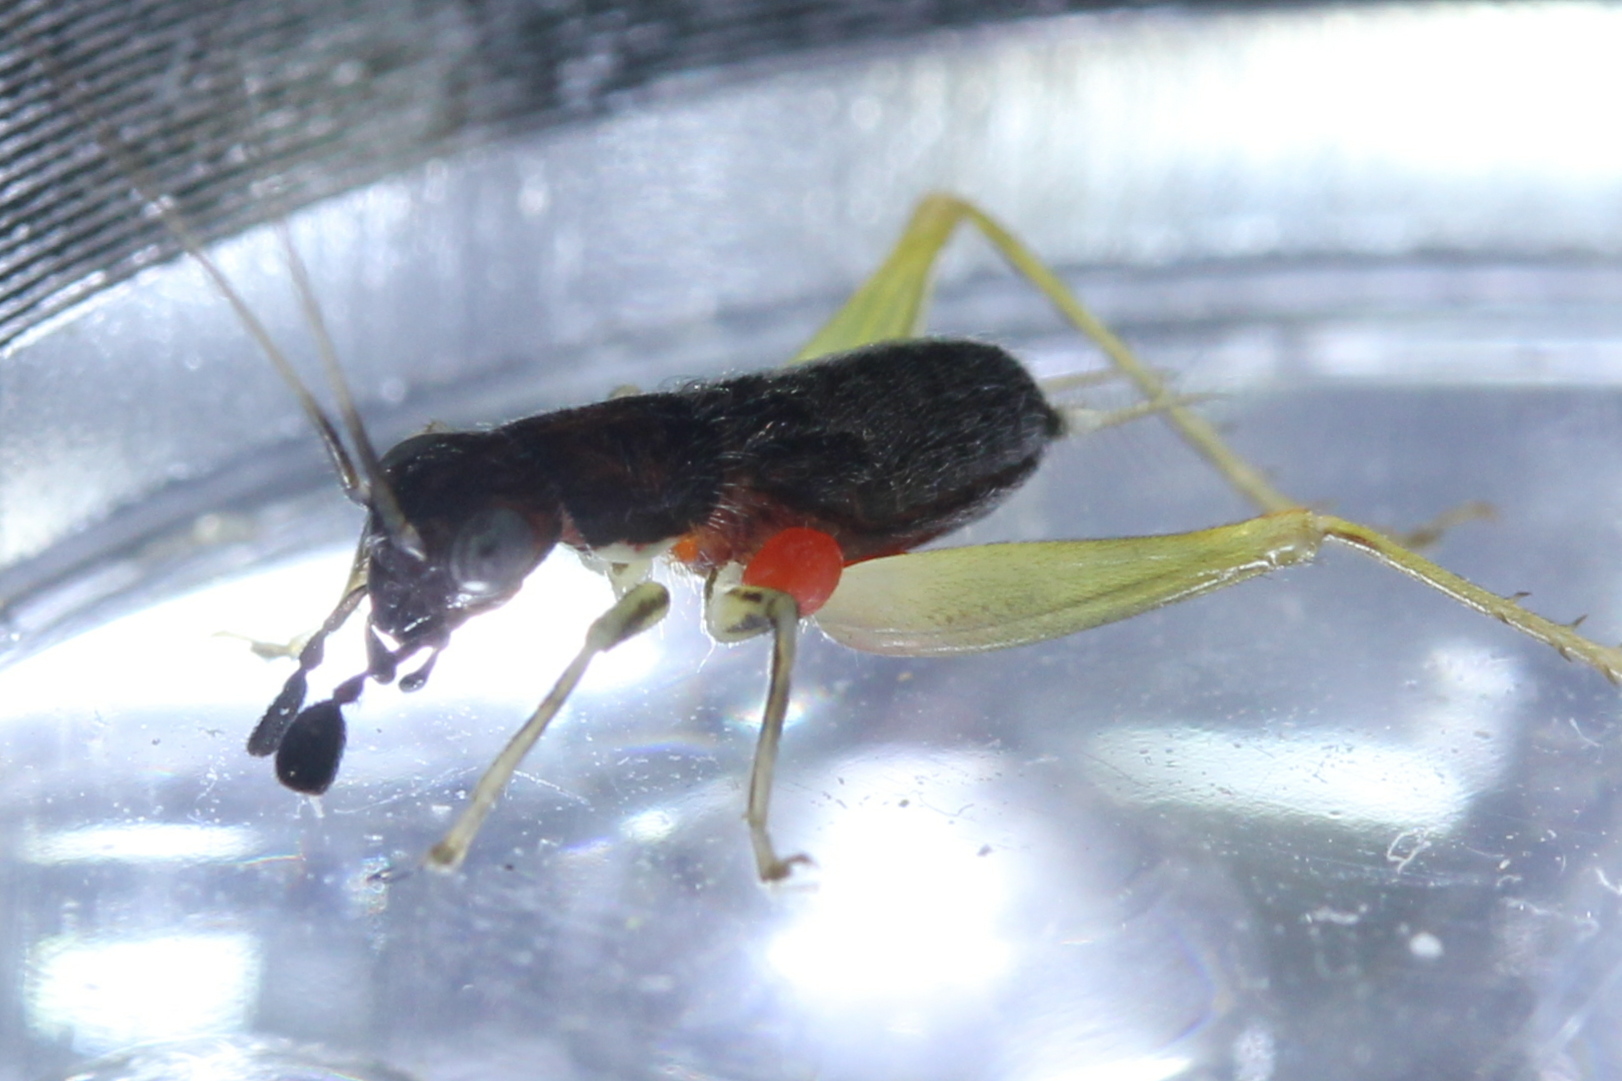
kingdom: Animalia
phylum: Arthropoda
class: Insecta
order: Orthoptera
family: Trigonidiidae
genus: Phyllopalpus
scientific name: Phyllopalpus pulchellus
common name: Handsome trig
